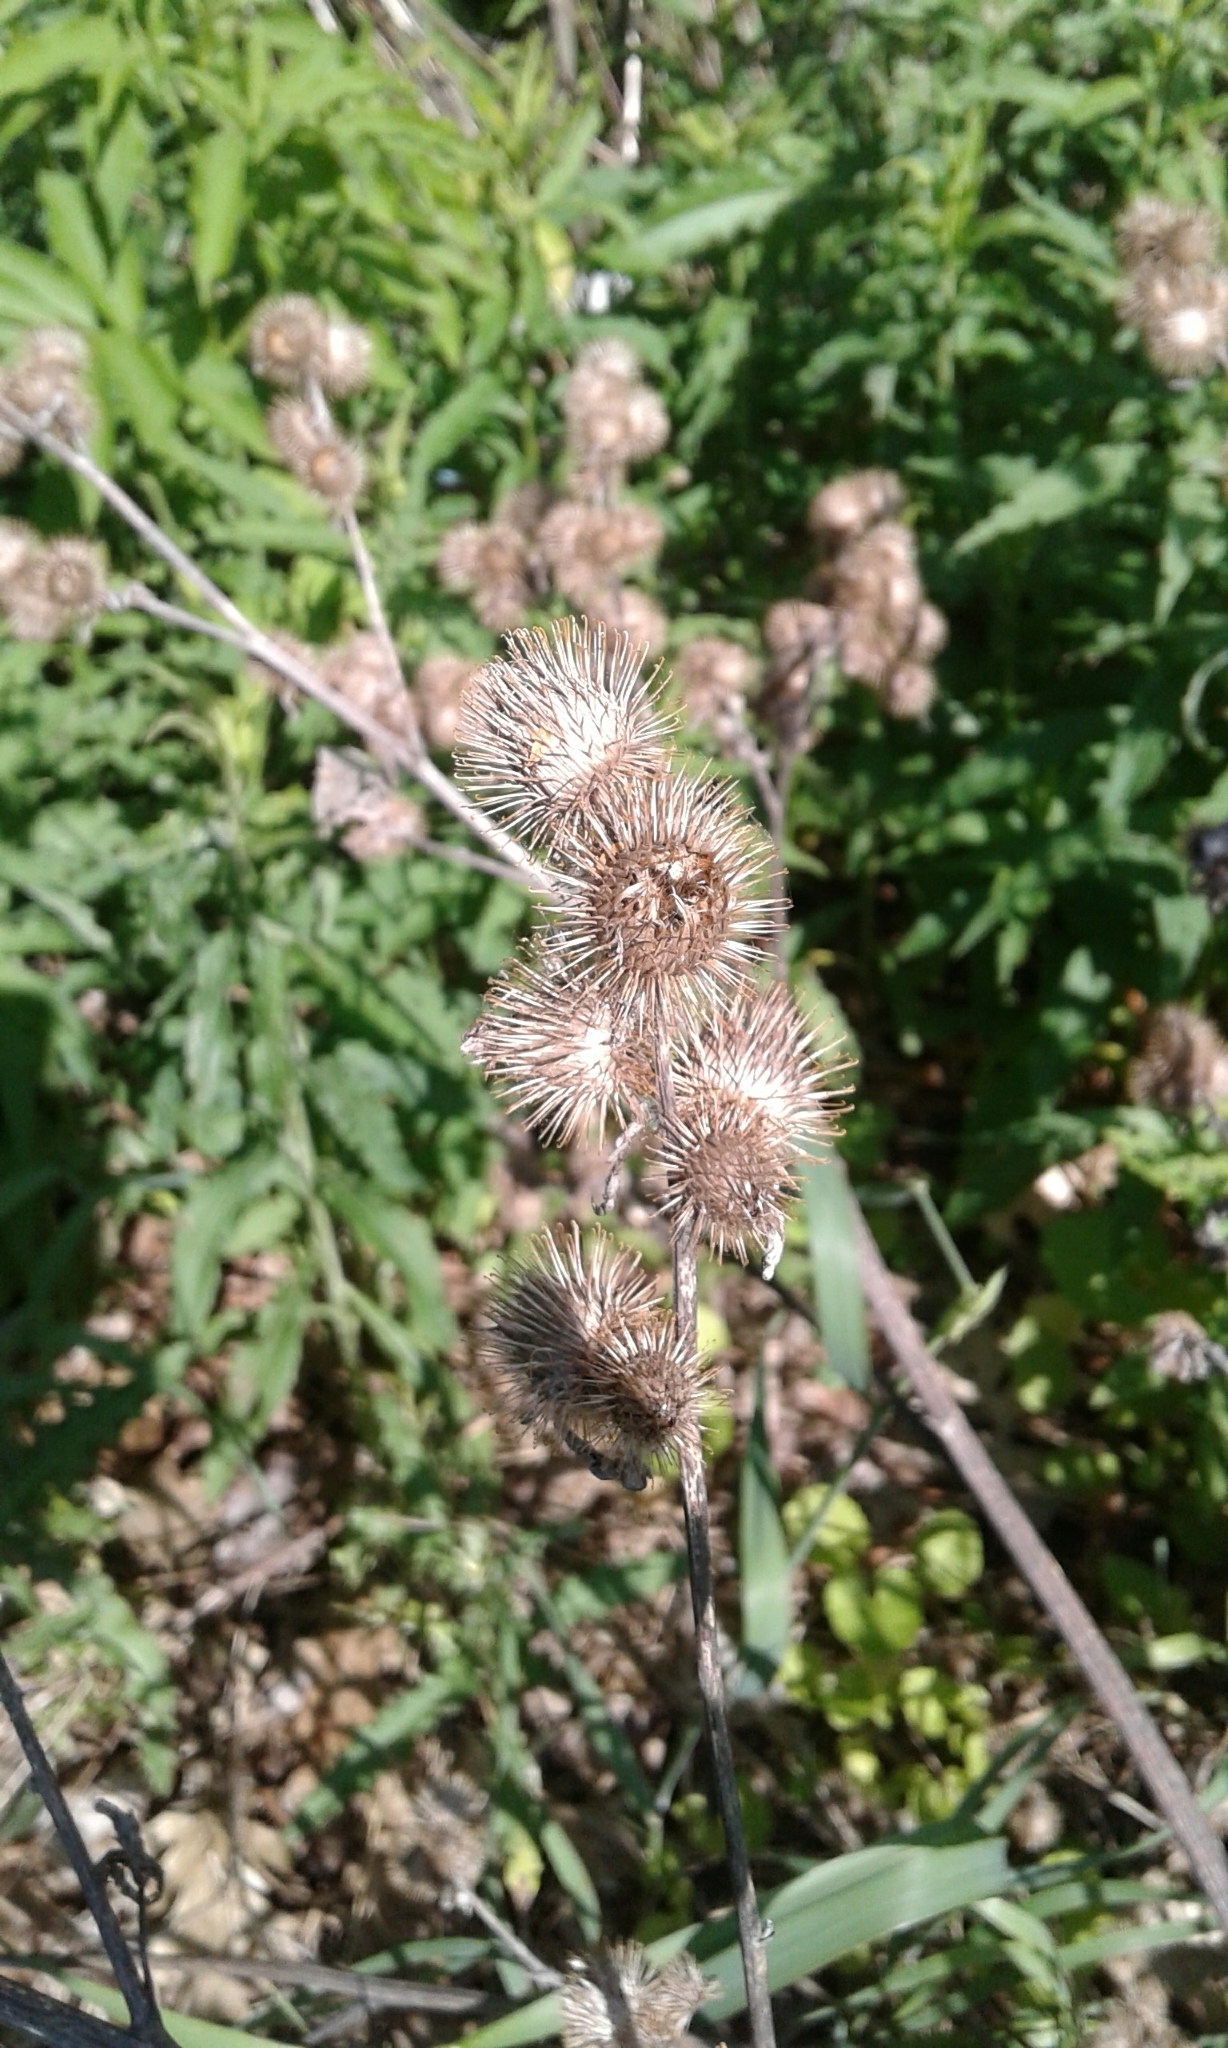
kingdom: Plantae
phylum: Tracheophyta
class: Magnoliopsida
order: Asterales
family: Asteraceae
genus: Arctium
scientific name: Arctium minus
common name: Lesser burdock
